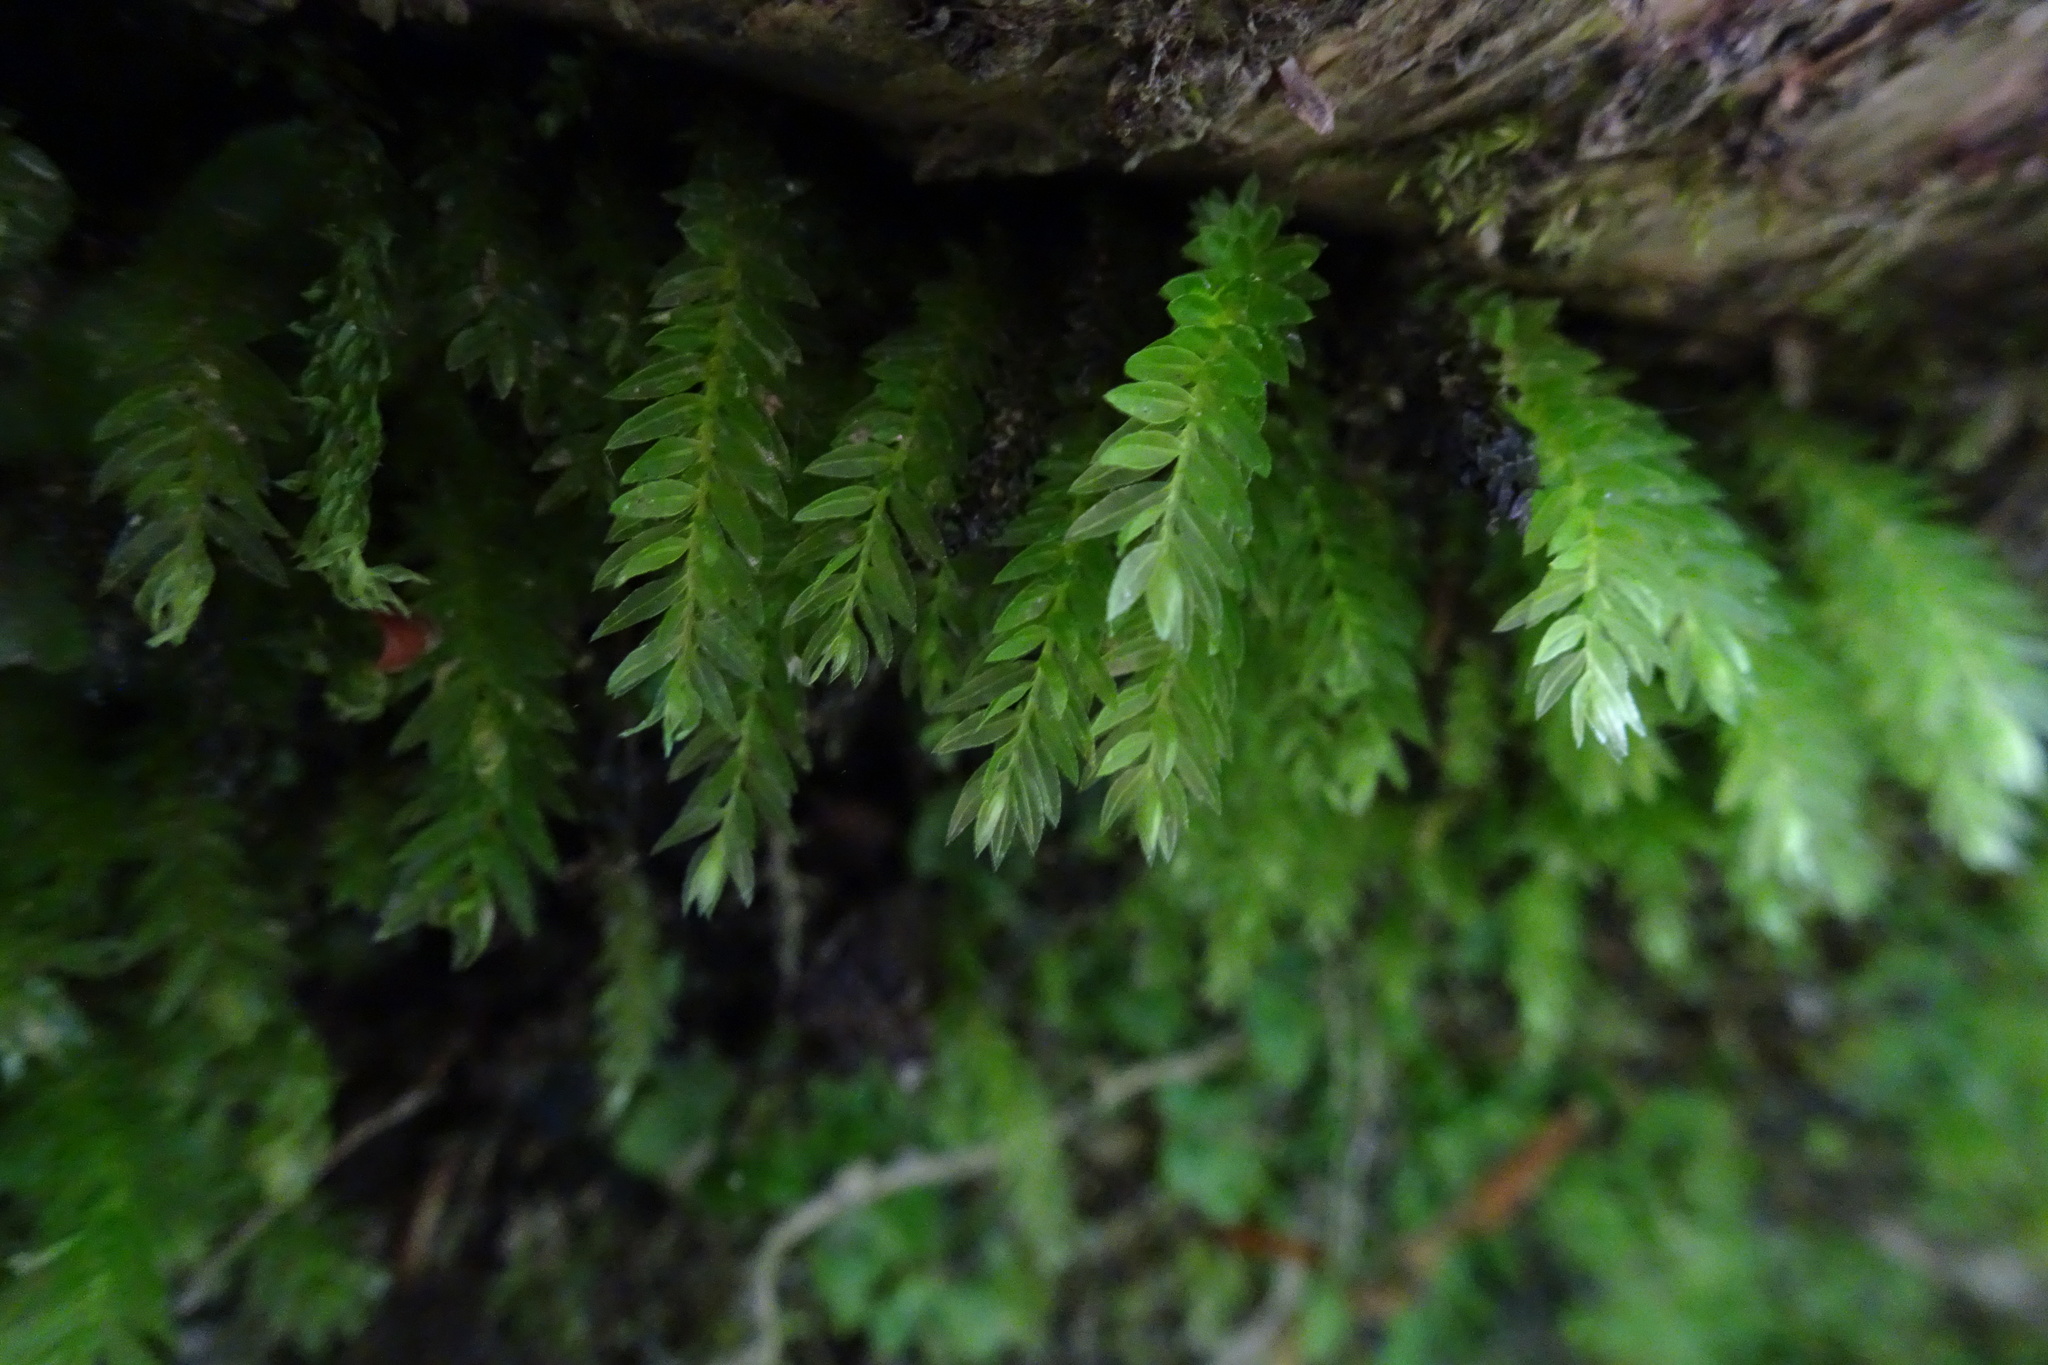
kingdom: Plantae
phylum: Bryophyta
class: Bryopsida
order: Bryales
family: Mniaceae
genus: Mnium
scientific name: Mnium hornum
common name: Swan's-neck leafy moss
